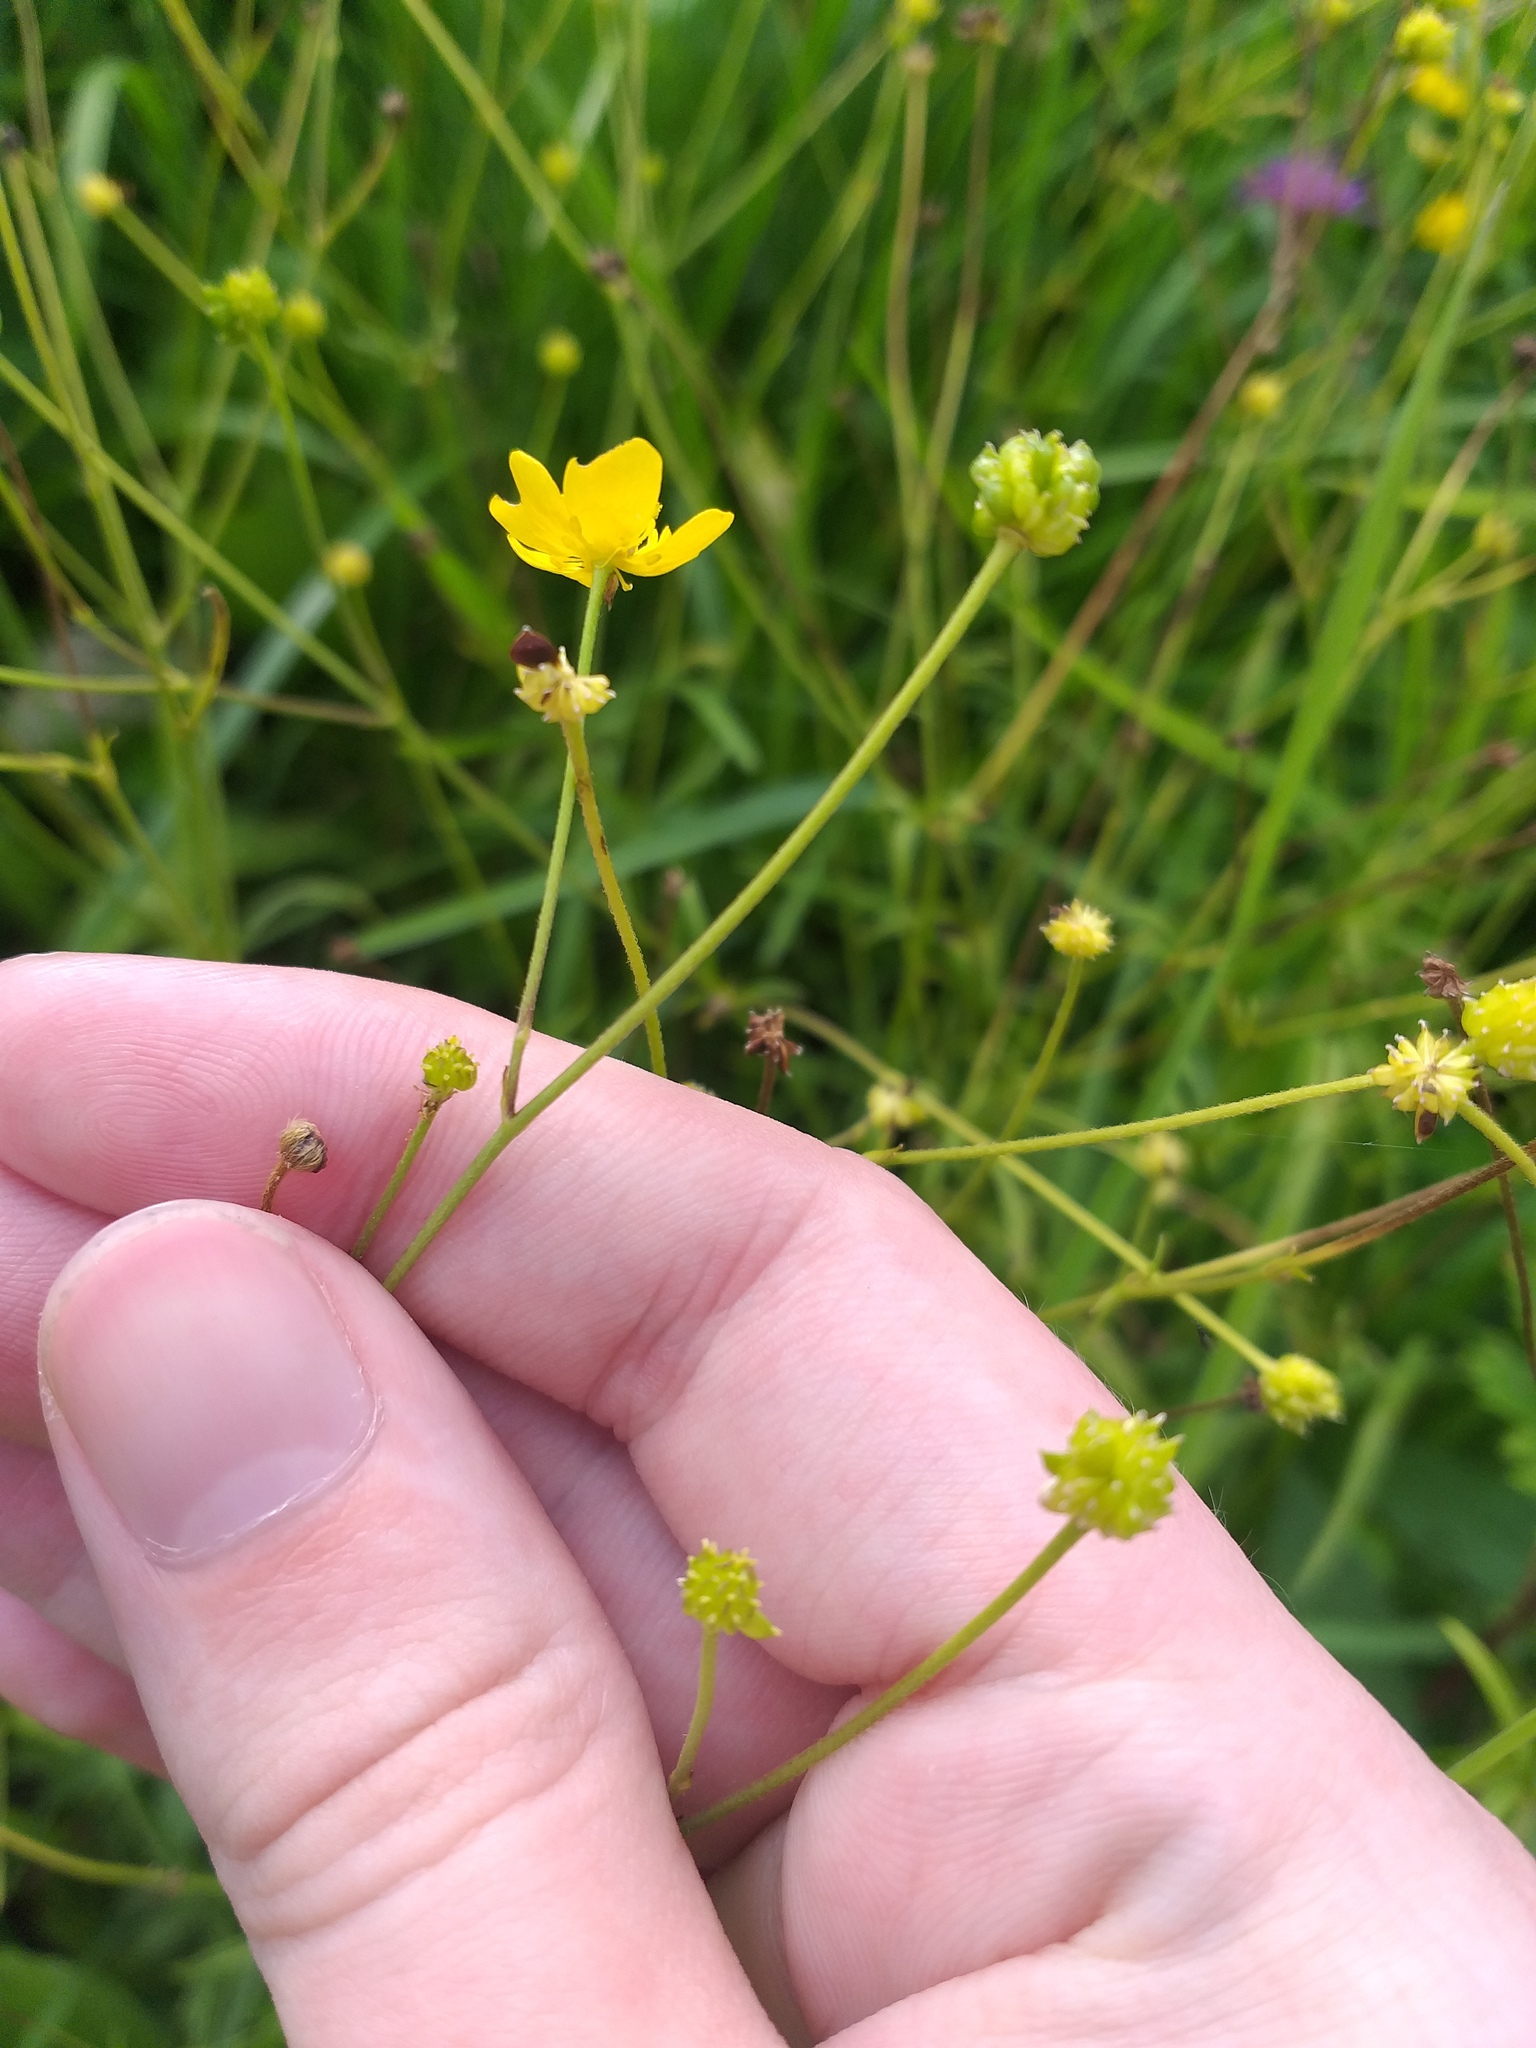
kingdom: Plantae
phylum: Tracheophyta
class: Magnoliopsida
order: Ranunculales
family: Ranunculaceae
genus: Ranunculus
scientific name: Ranunculus acris
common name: Meadow buttercup
